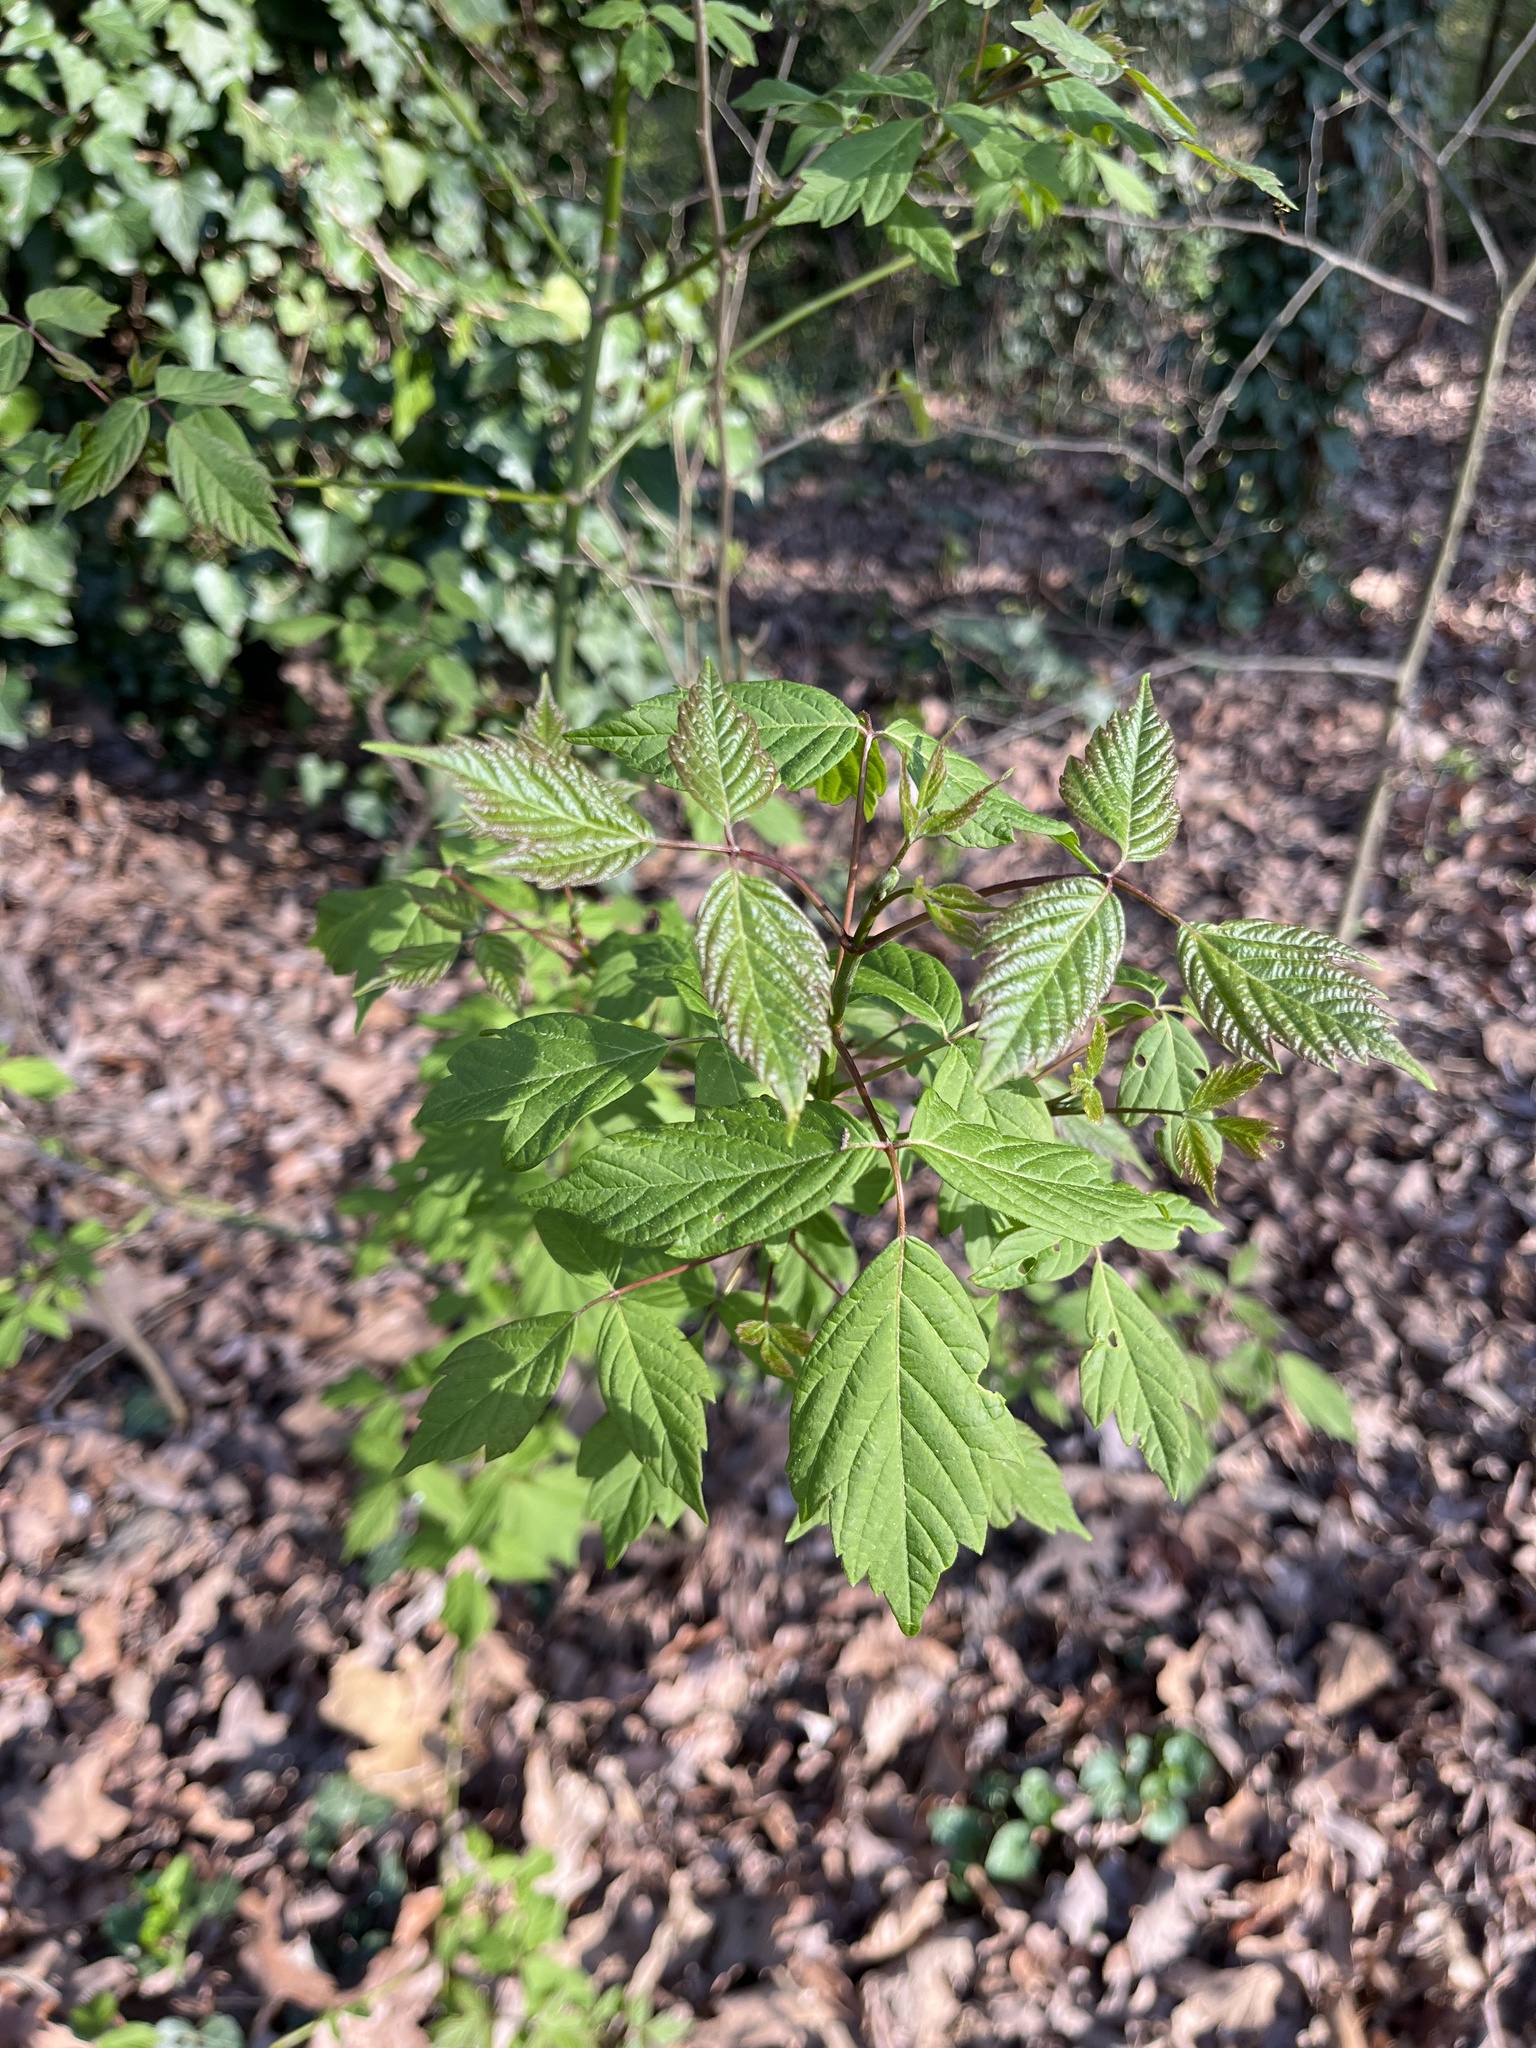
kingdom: Plantae
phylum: Tracheophyta
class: Magnoliopsida
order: Sapindales
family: Sapindaceae
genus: Acer
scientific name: Acer negundo
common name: Ashleaf maple
